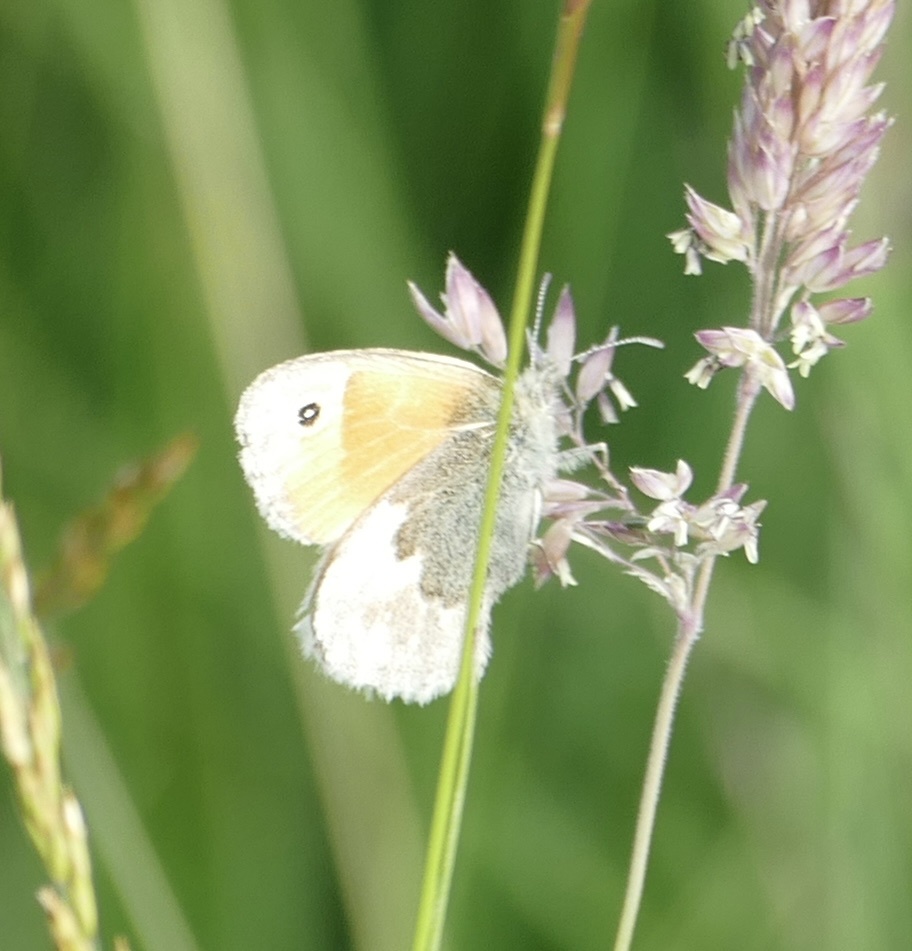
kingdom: Animalia
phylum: Arthropoda
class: Insecta
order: Lepidoptera
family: Nymphalidae
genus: Coenonympha
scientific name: Coenonympha pamphilus
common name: Small heath
